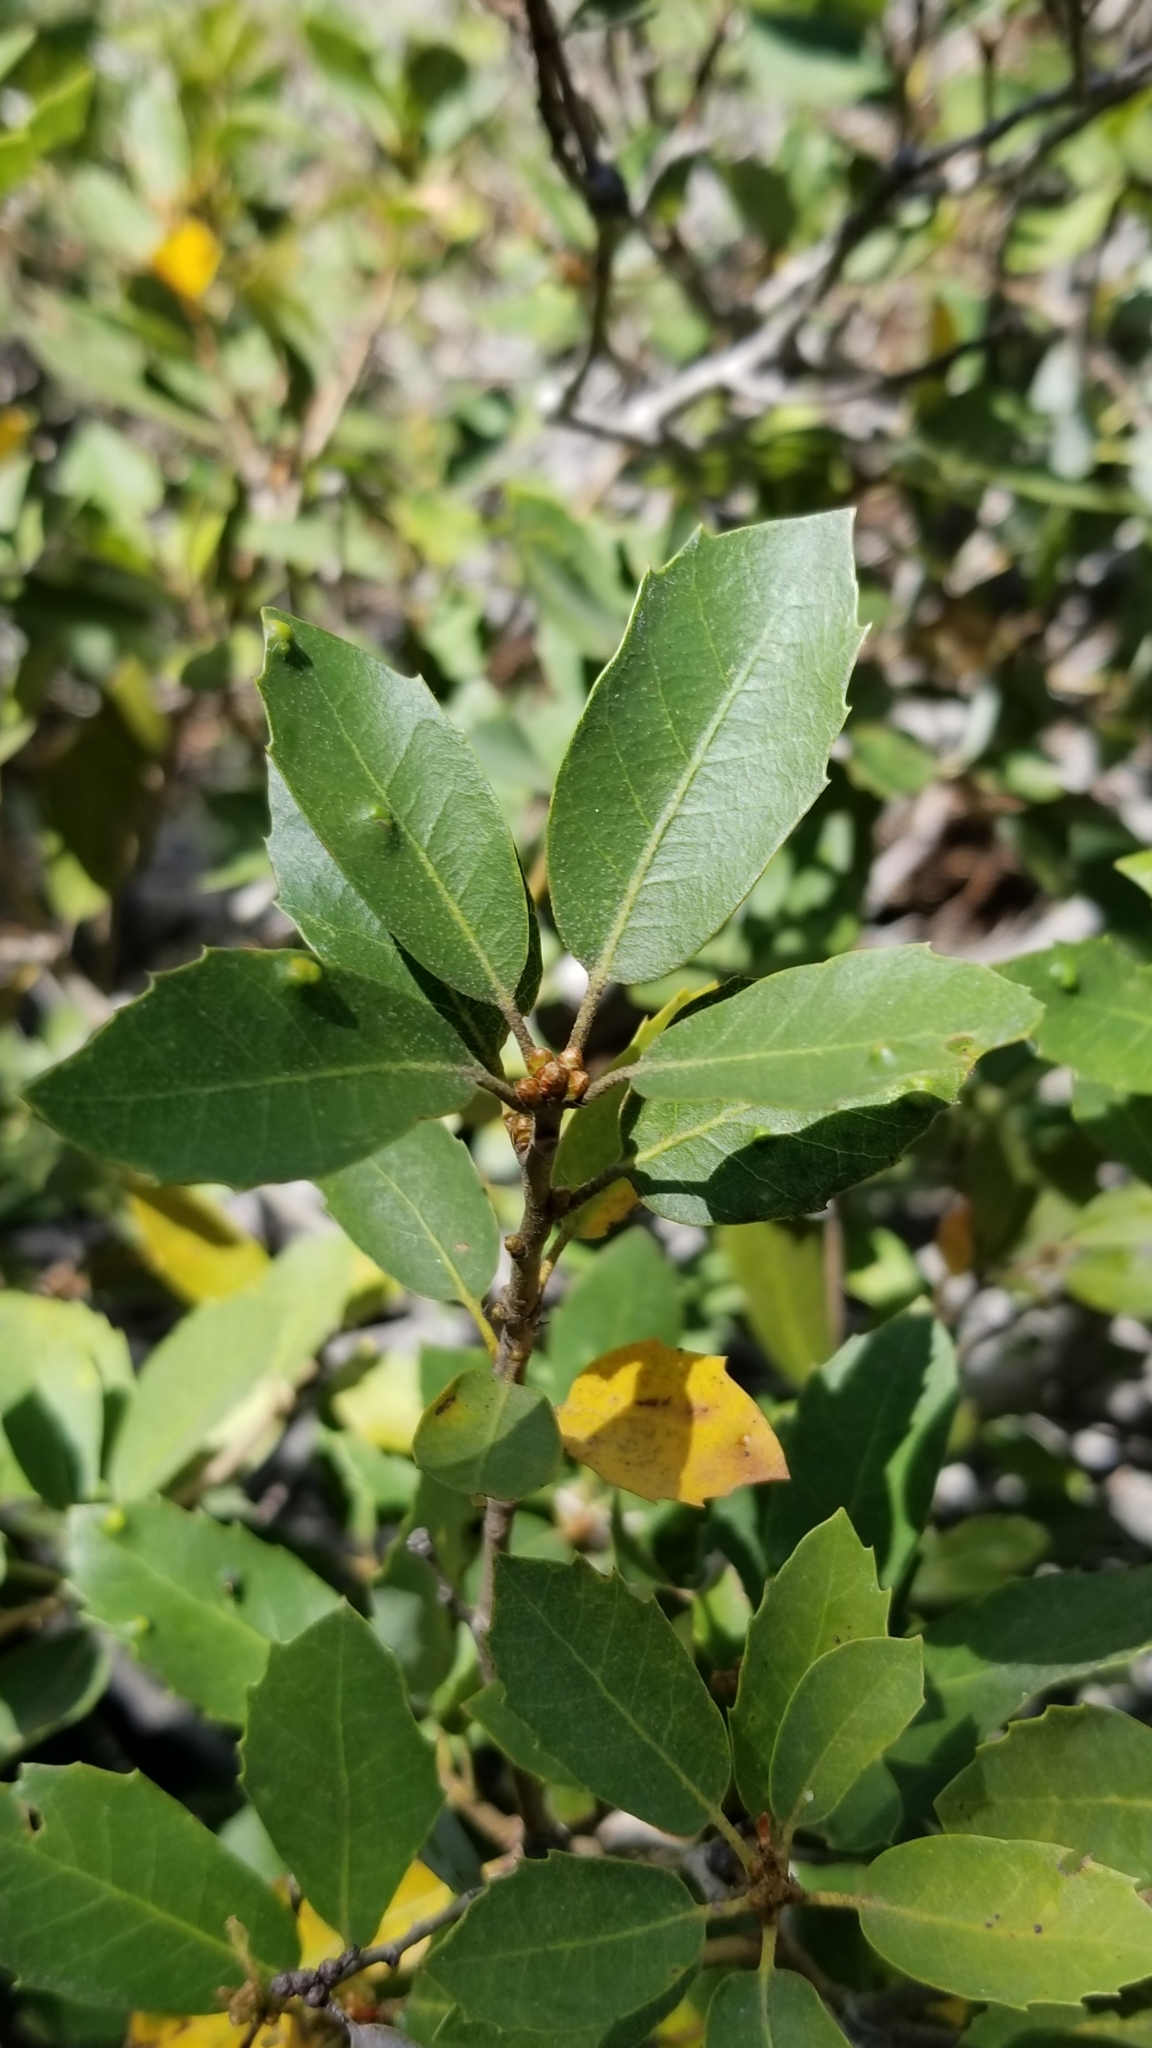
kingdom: Plantae
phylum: Tracheophyta
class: Magnoliopsida
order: Fagales
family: Fagaceae
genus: Quercus
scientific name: Quercus vacciniifolia
